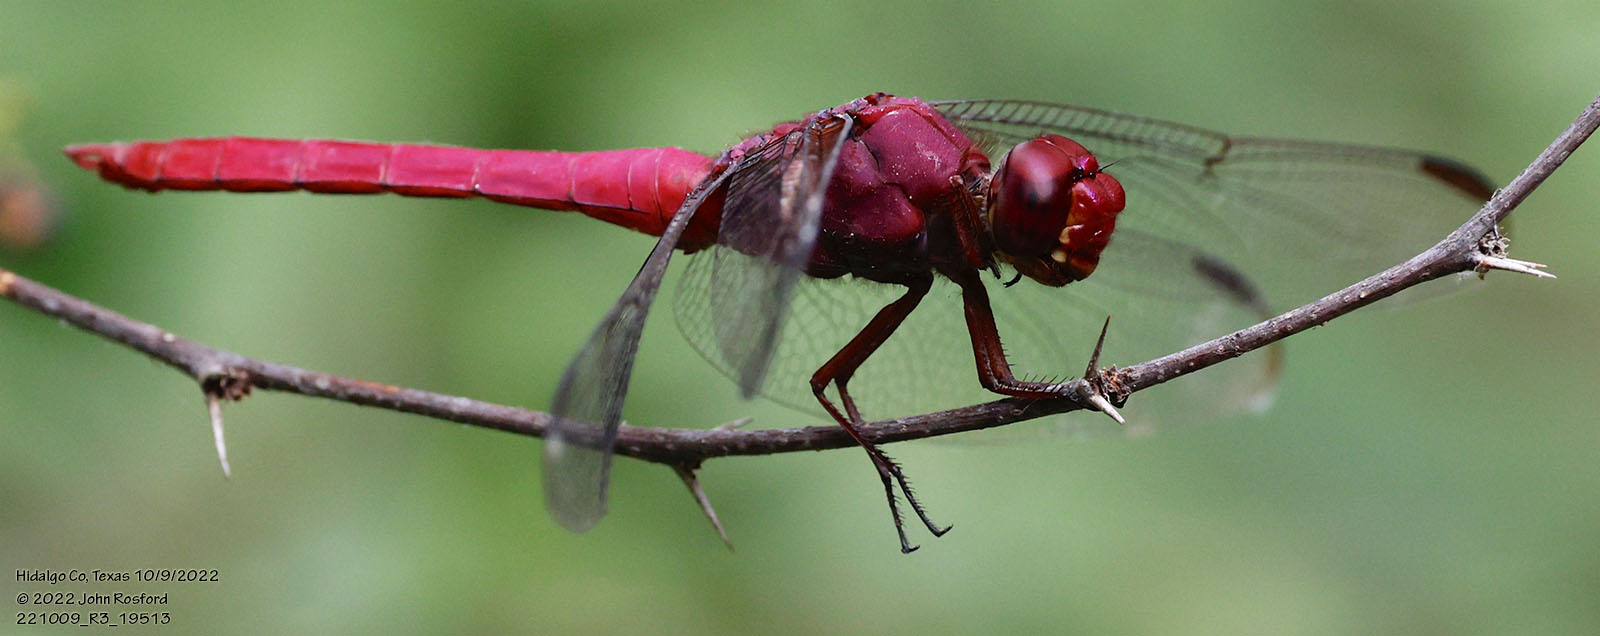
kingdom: Animalia
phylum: Arthropoda
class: Insecta
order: Odonata
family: Libellulidae
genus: Orthemis
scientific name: Orthemis discolor
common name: Carmine skimmer
